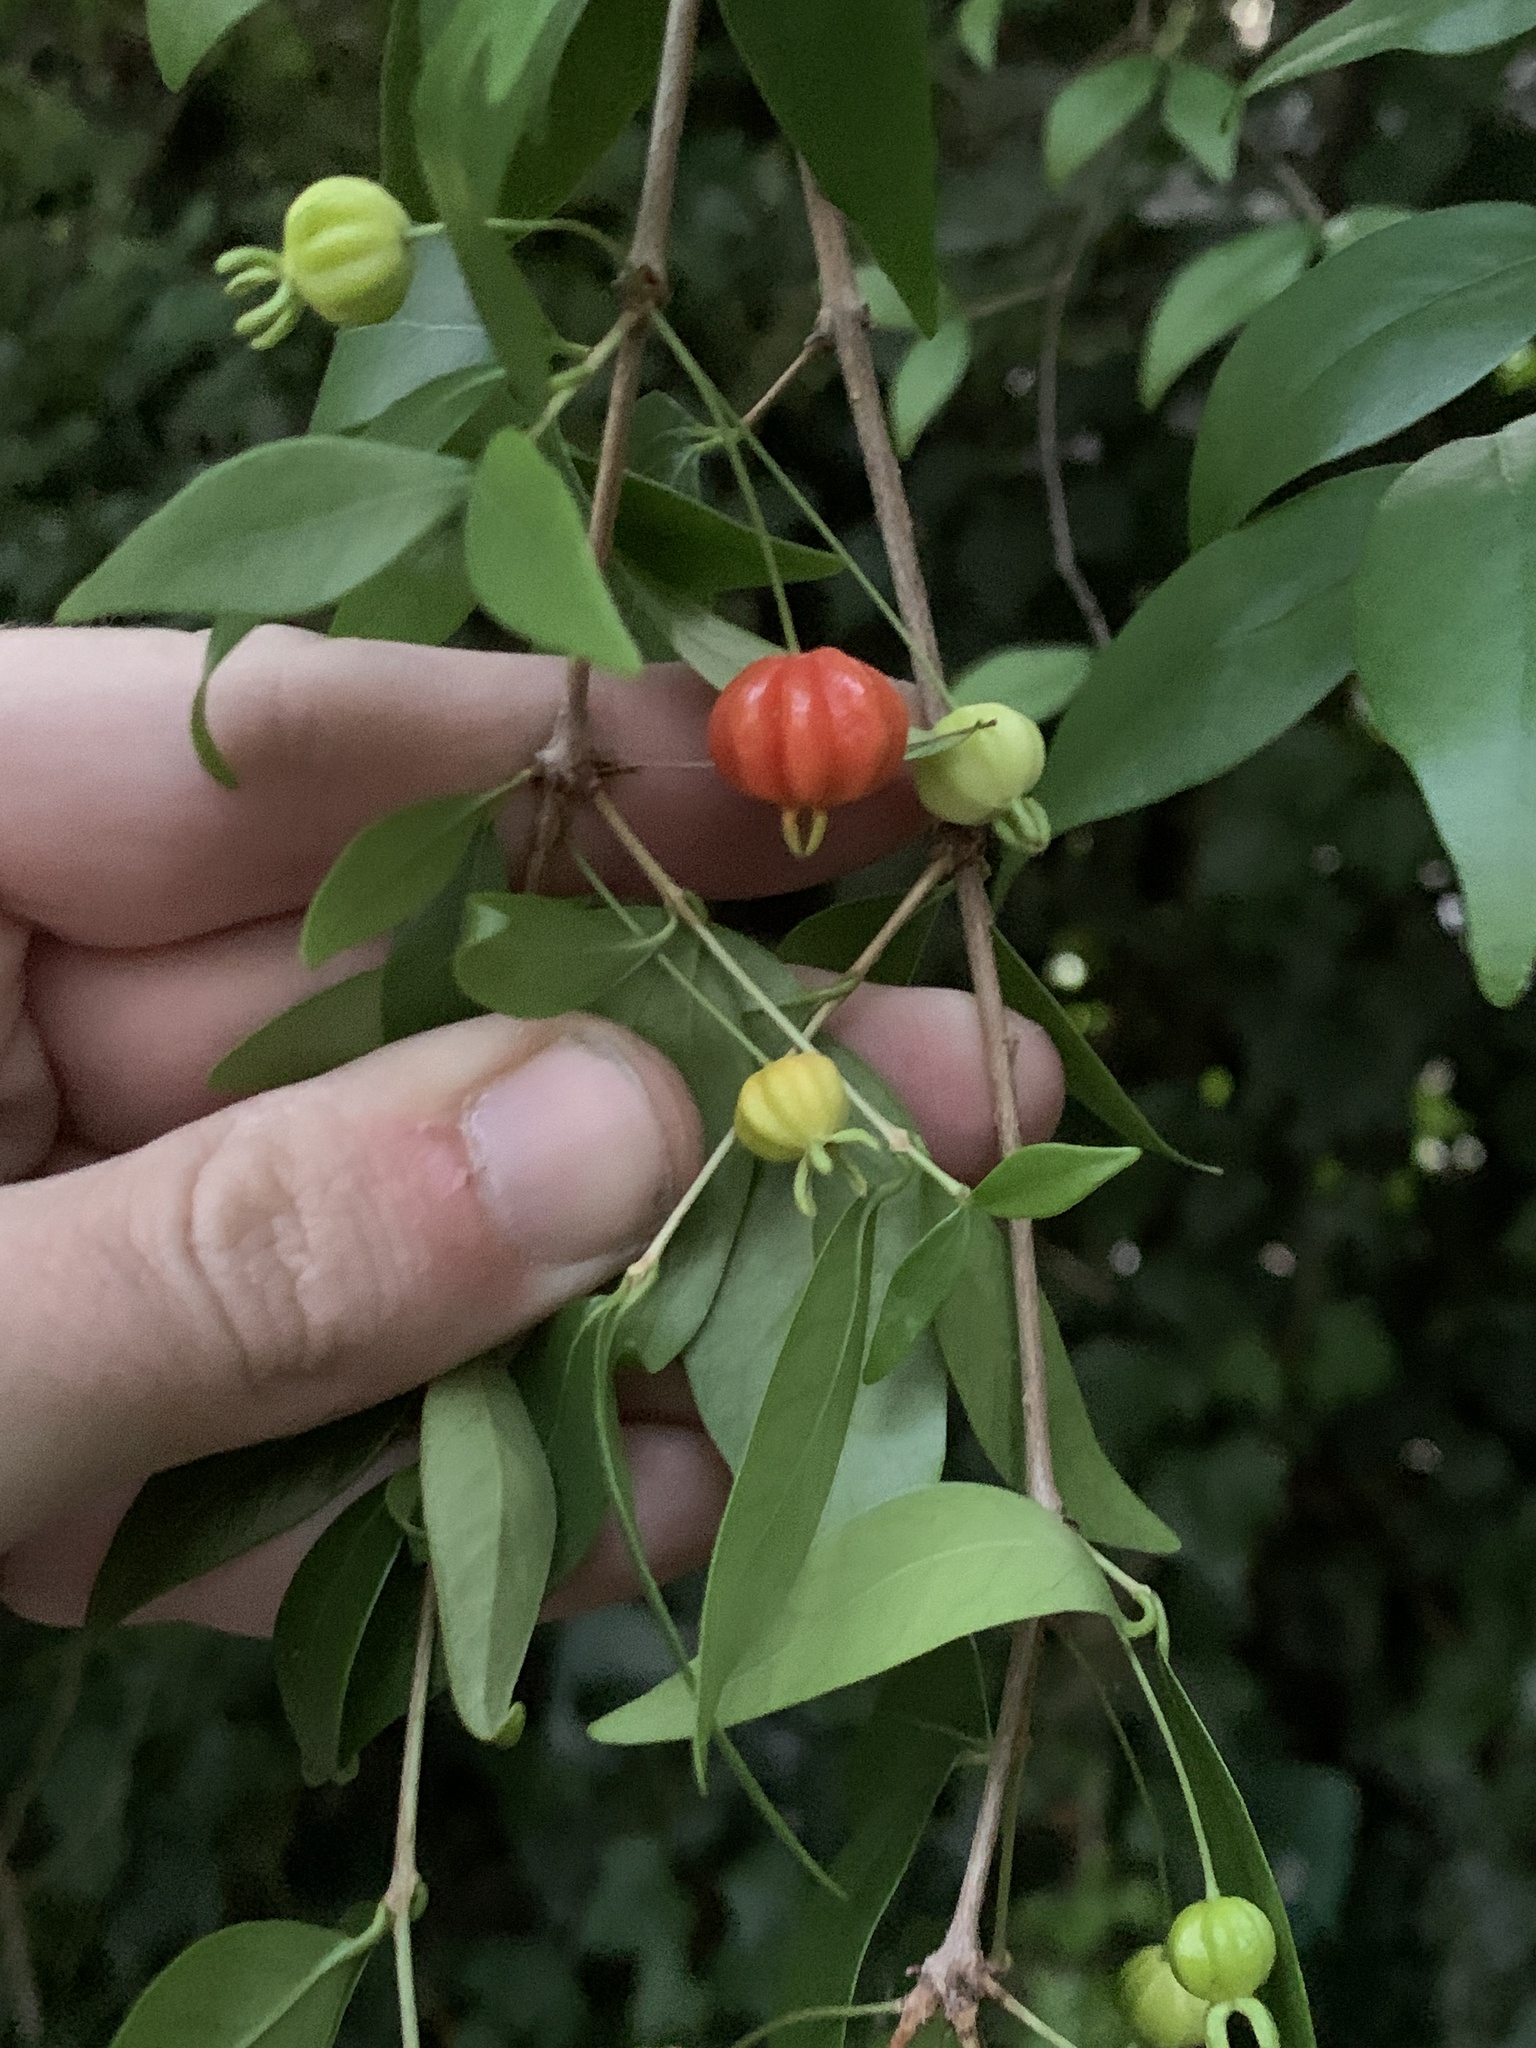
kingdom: Plantae
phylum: Tracheophyta
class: Magnoliopsida
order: Myrtales
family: Myrtaceae
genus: Eugenia
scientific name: Eugenia uniflora
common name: Surinam cherry
